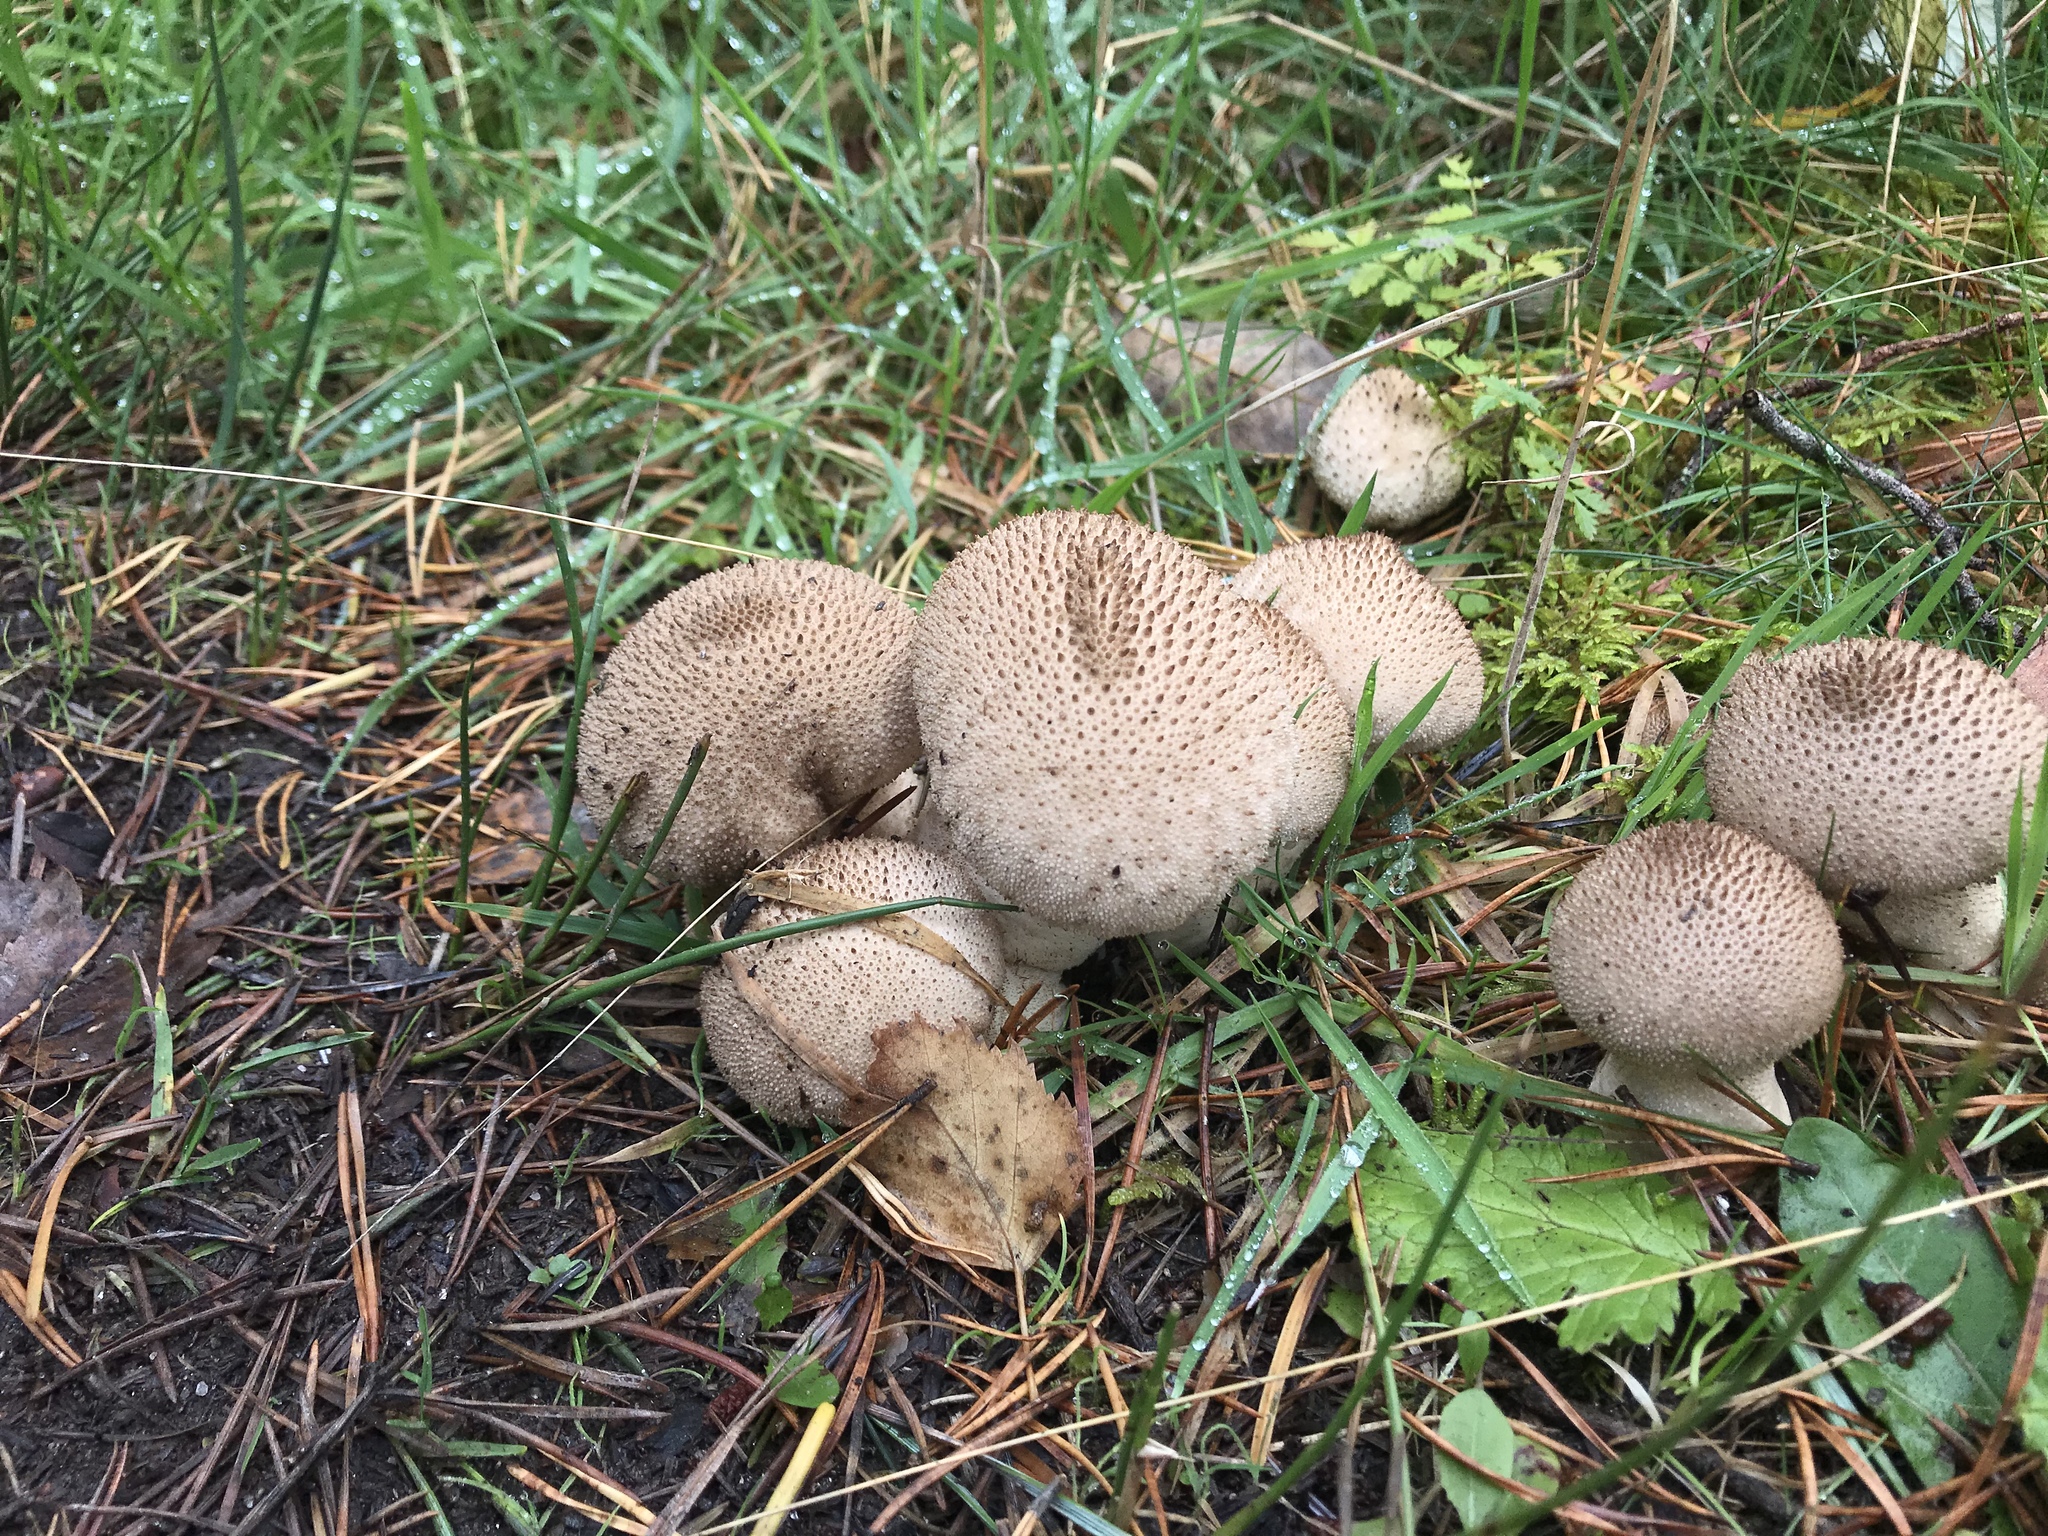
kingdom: Fungi
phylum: Basidiomycota
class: Agaricomycetes
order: Agaricales
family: Lycoperdaceae
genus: Lycoperdon
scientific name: Lycoperdon perlatum
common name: Common puffball
